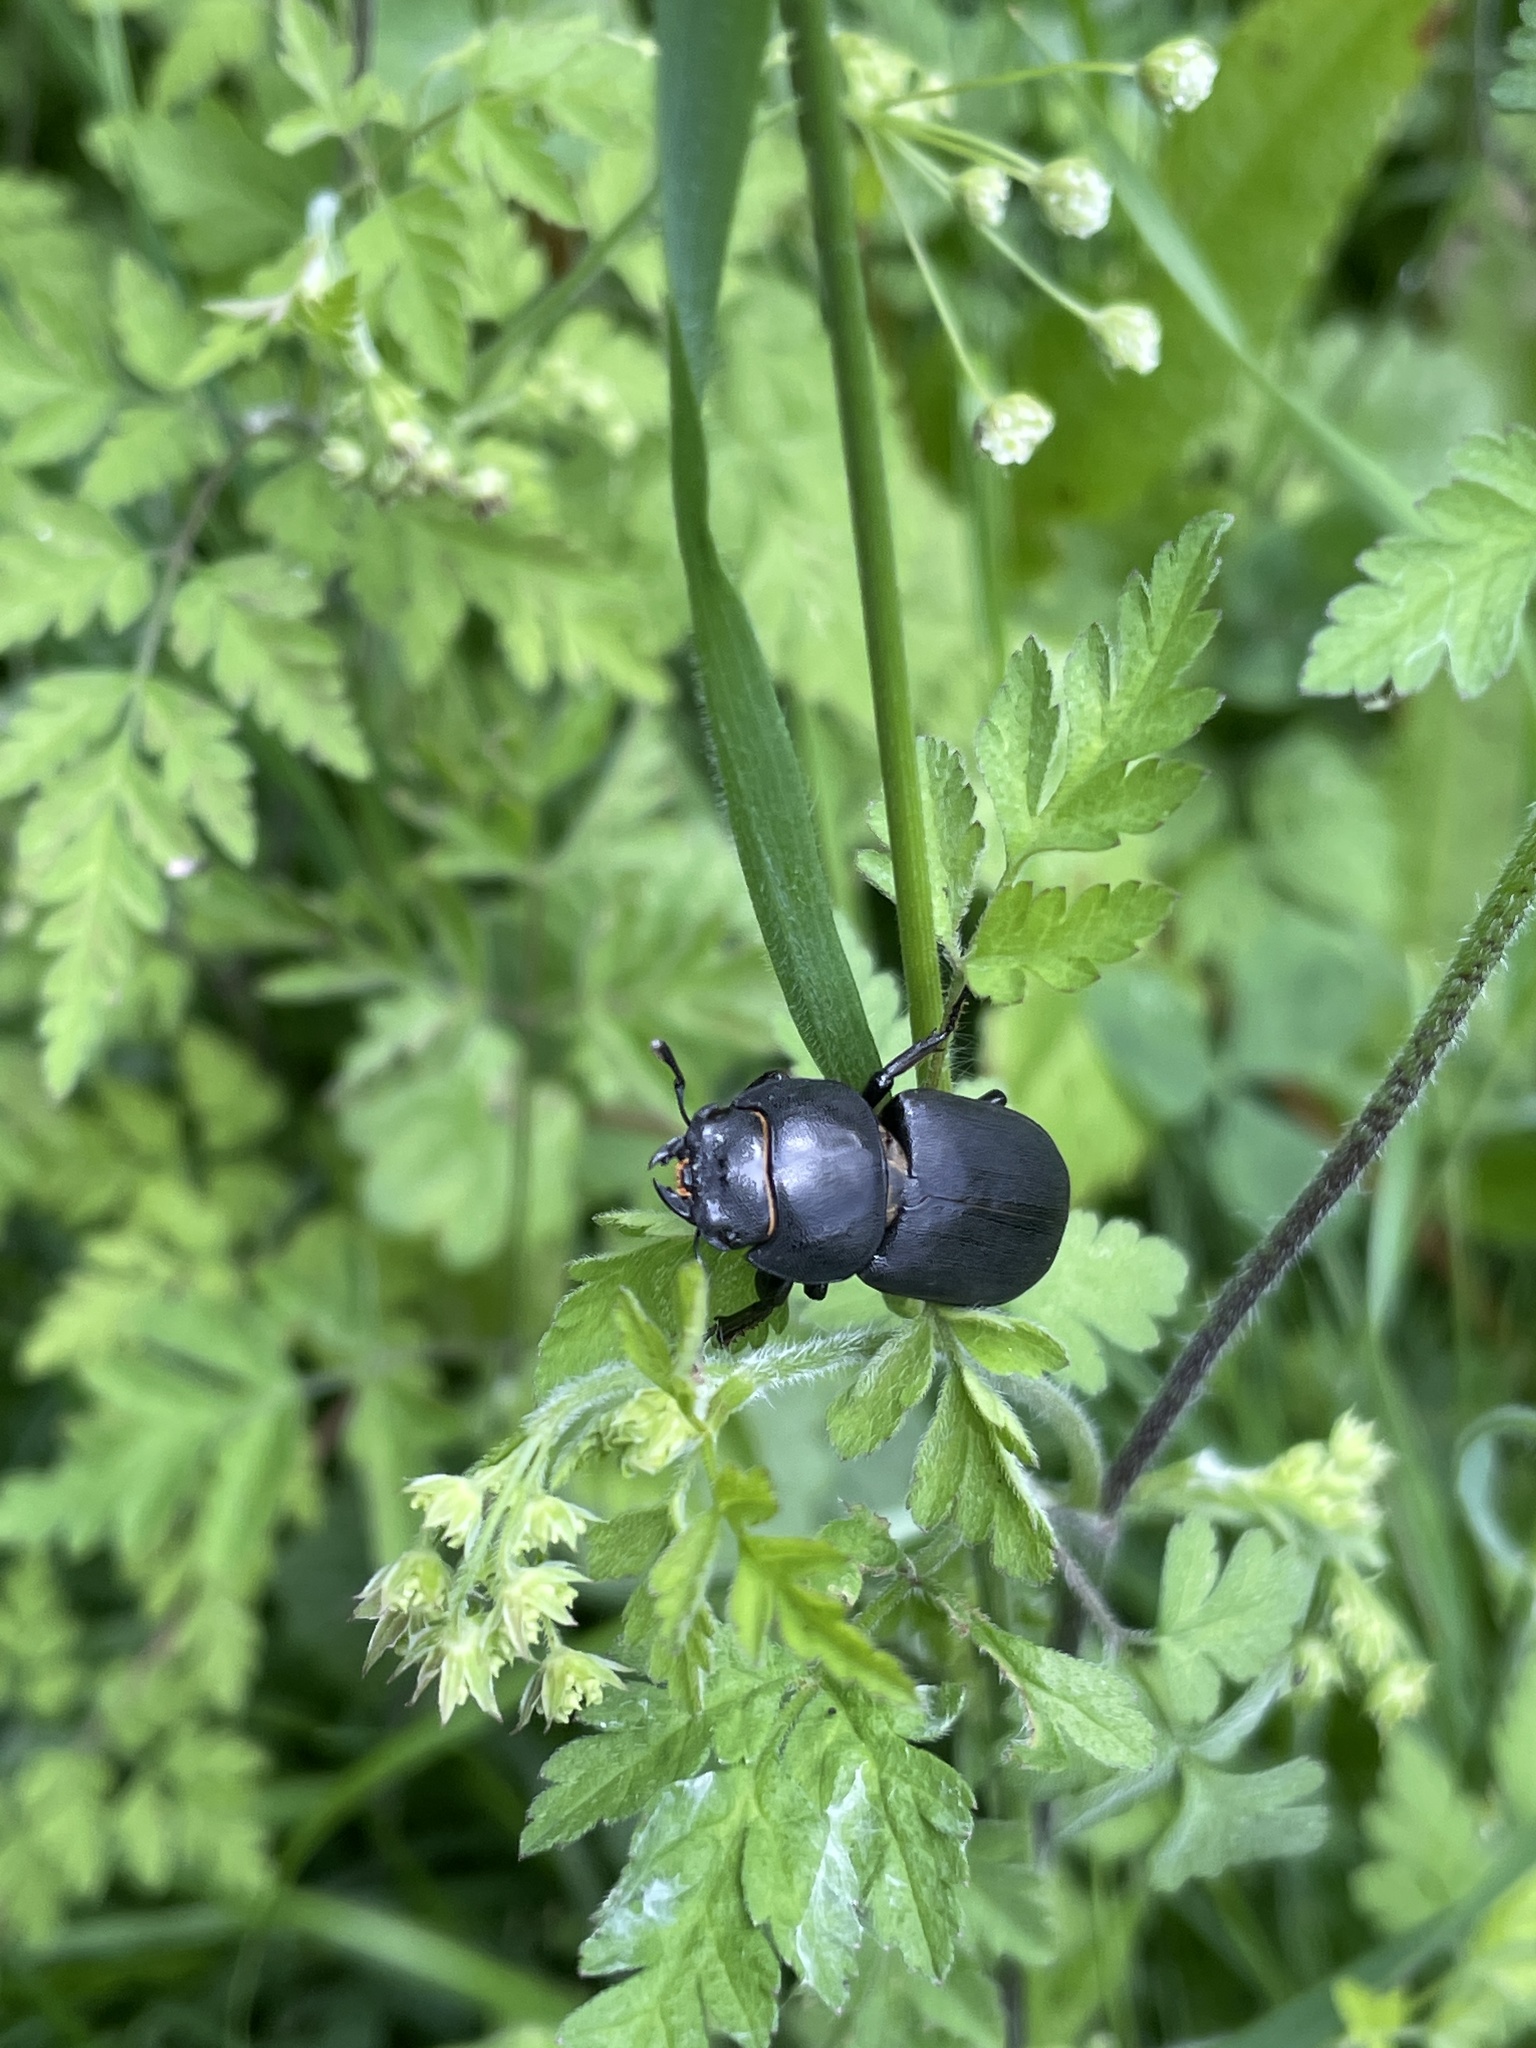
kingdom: Animalia
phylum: Arthropoda
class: Insecta
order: Coleoptera
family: Lucanidae
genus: Dorcus
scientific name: Dorcus parallelipipedus
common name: Lesser stag beetle
